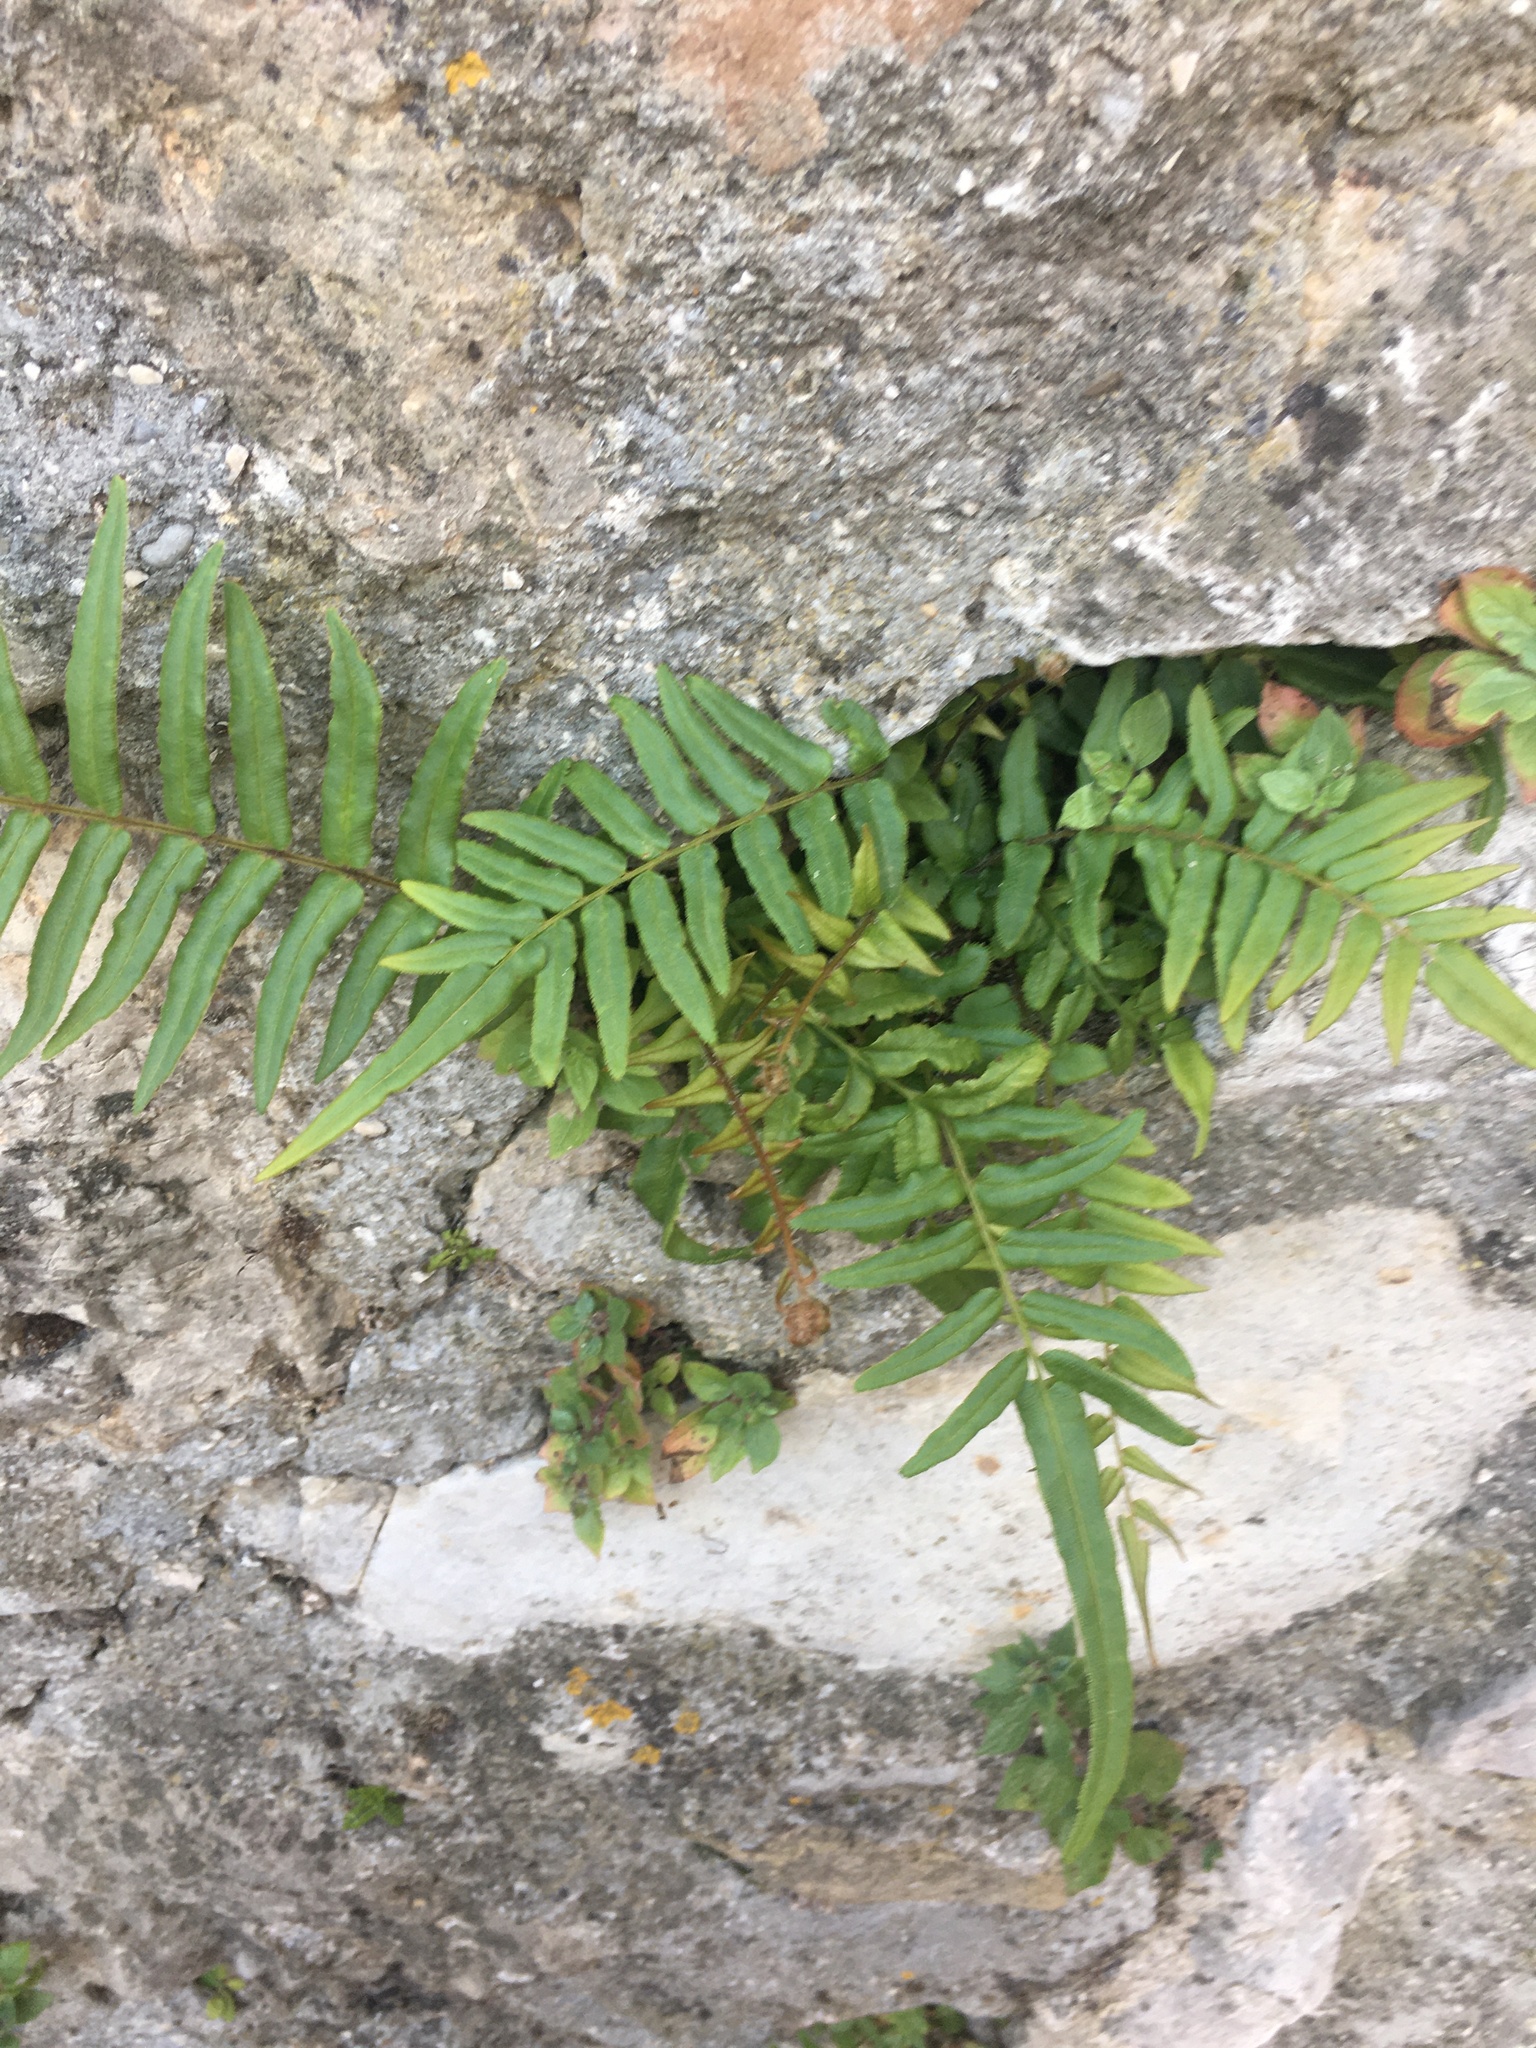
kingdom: Plantae
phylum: Tracheophyta
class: Polypodiopsida
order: Polypodiales
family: Pteridaceae
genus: Pteris
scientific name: Pteris vittata
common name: Ladder brake
